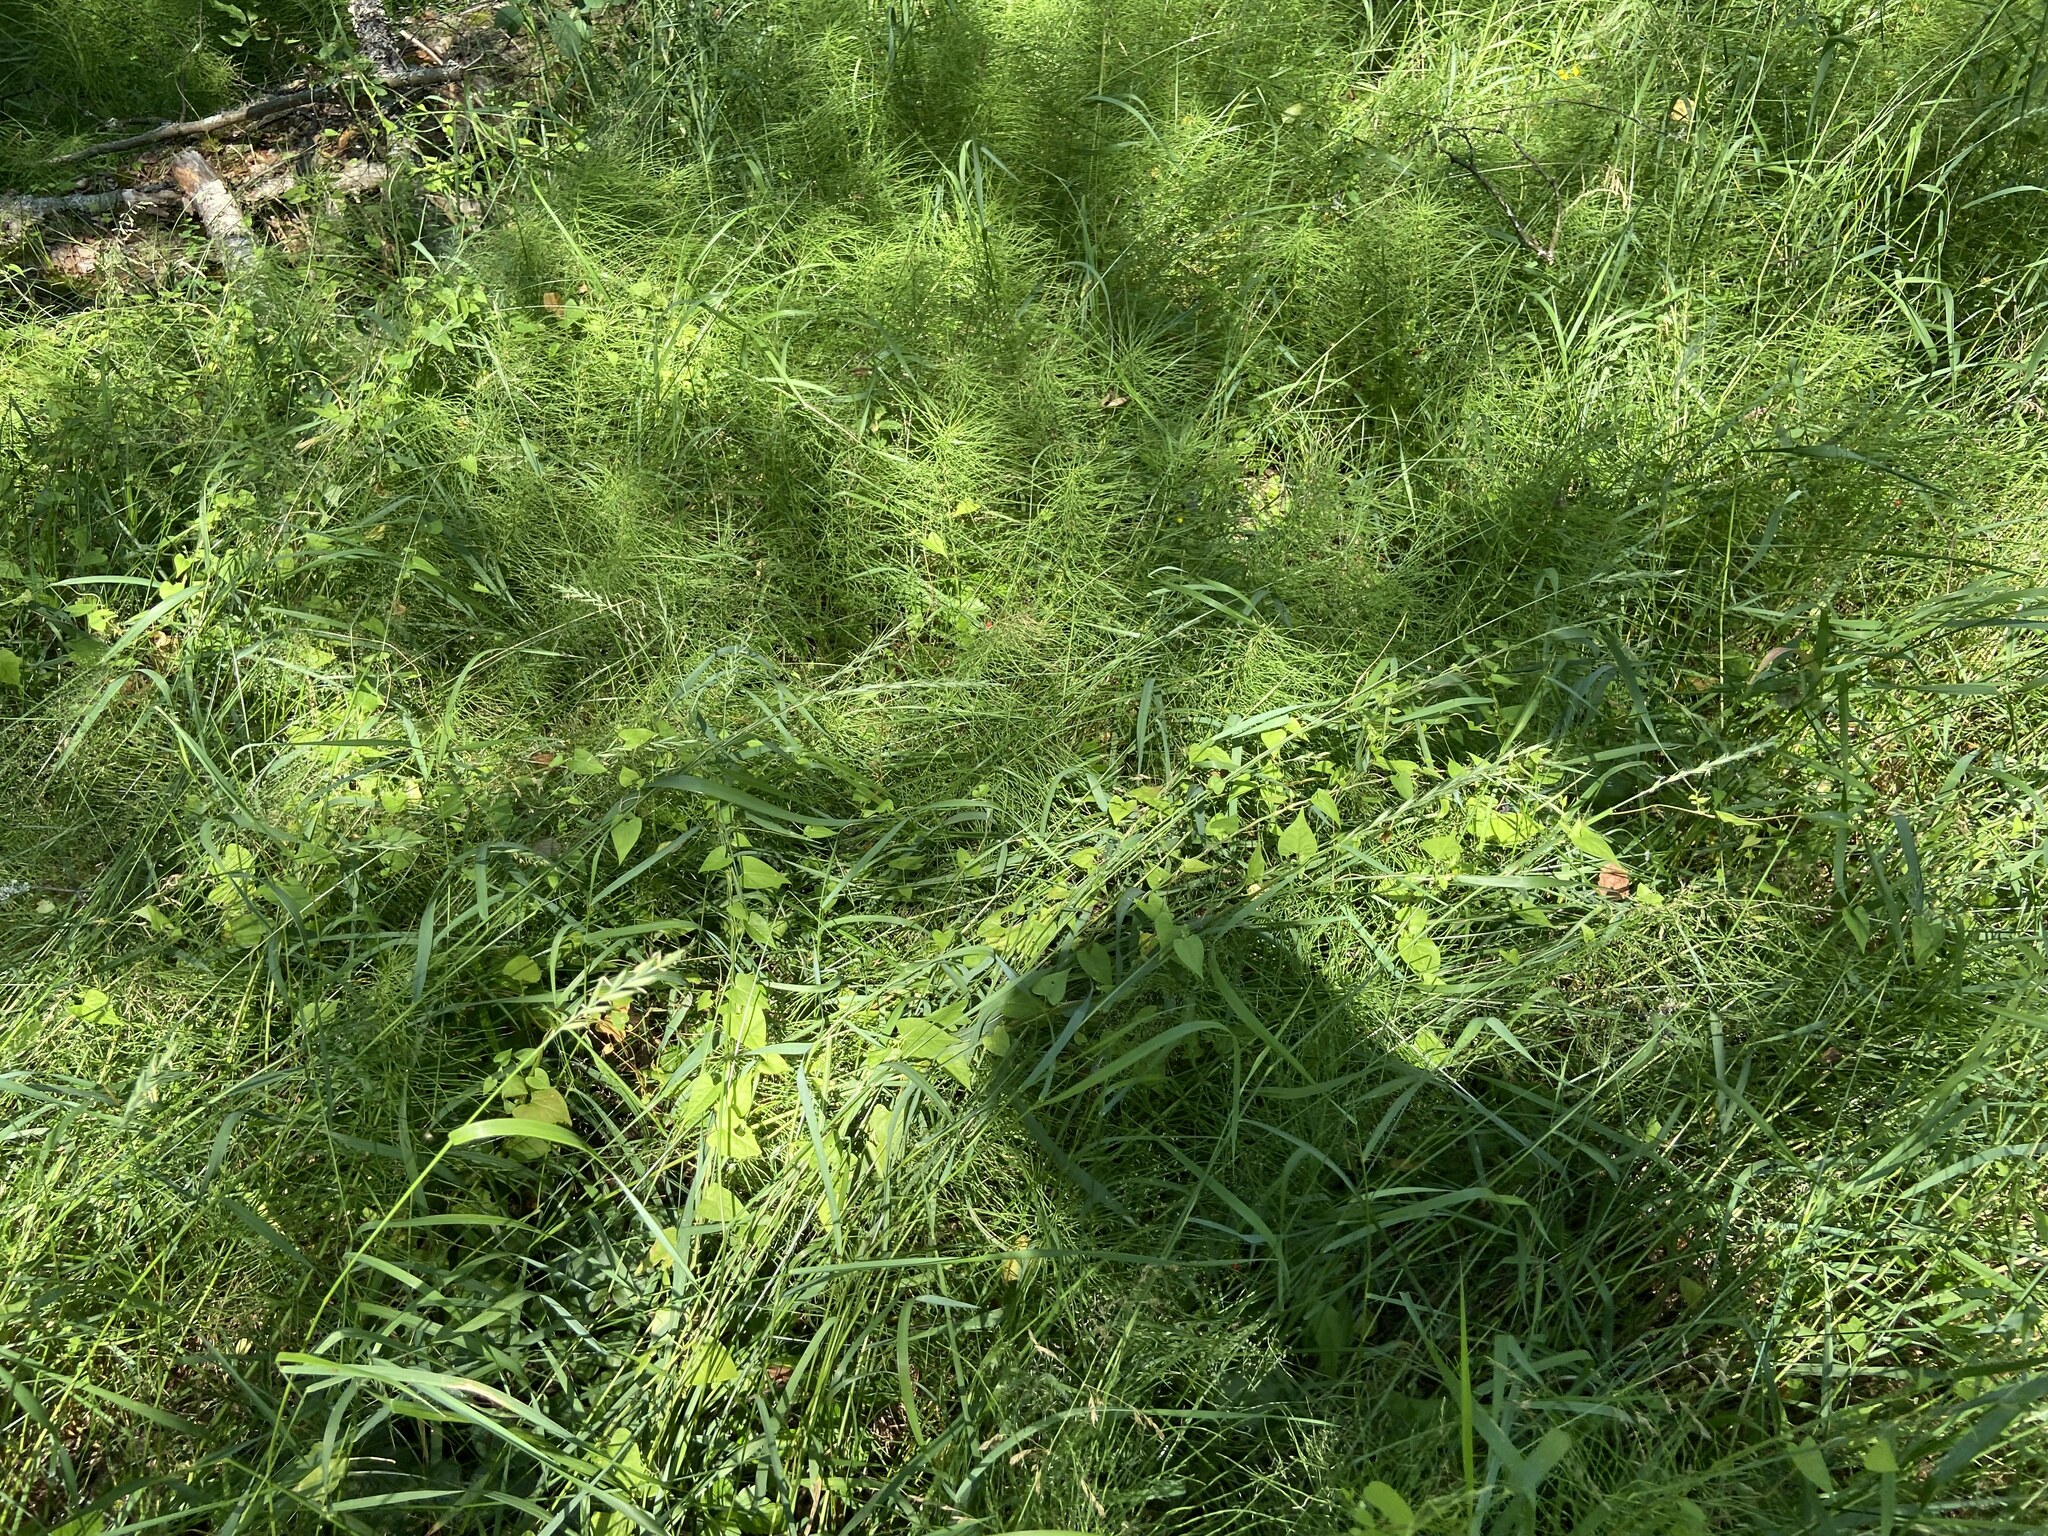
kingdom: Plantae
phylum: Tracheophyta
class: Polypodiopsida
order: Equisetales
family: Equisetaceae
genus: Equisetum
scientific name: Equisetum pratense
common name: Meadow horsetail
